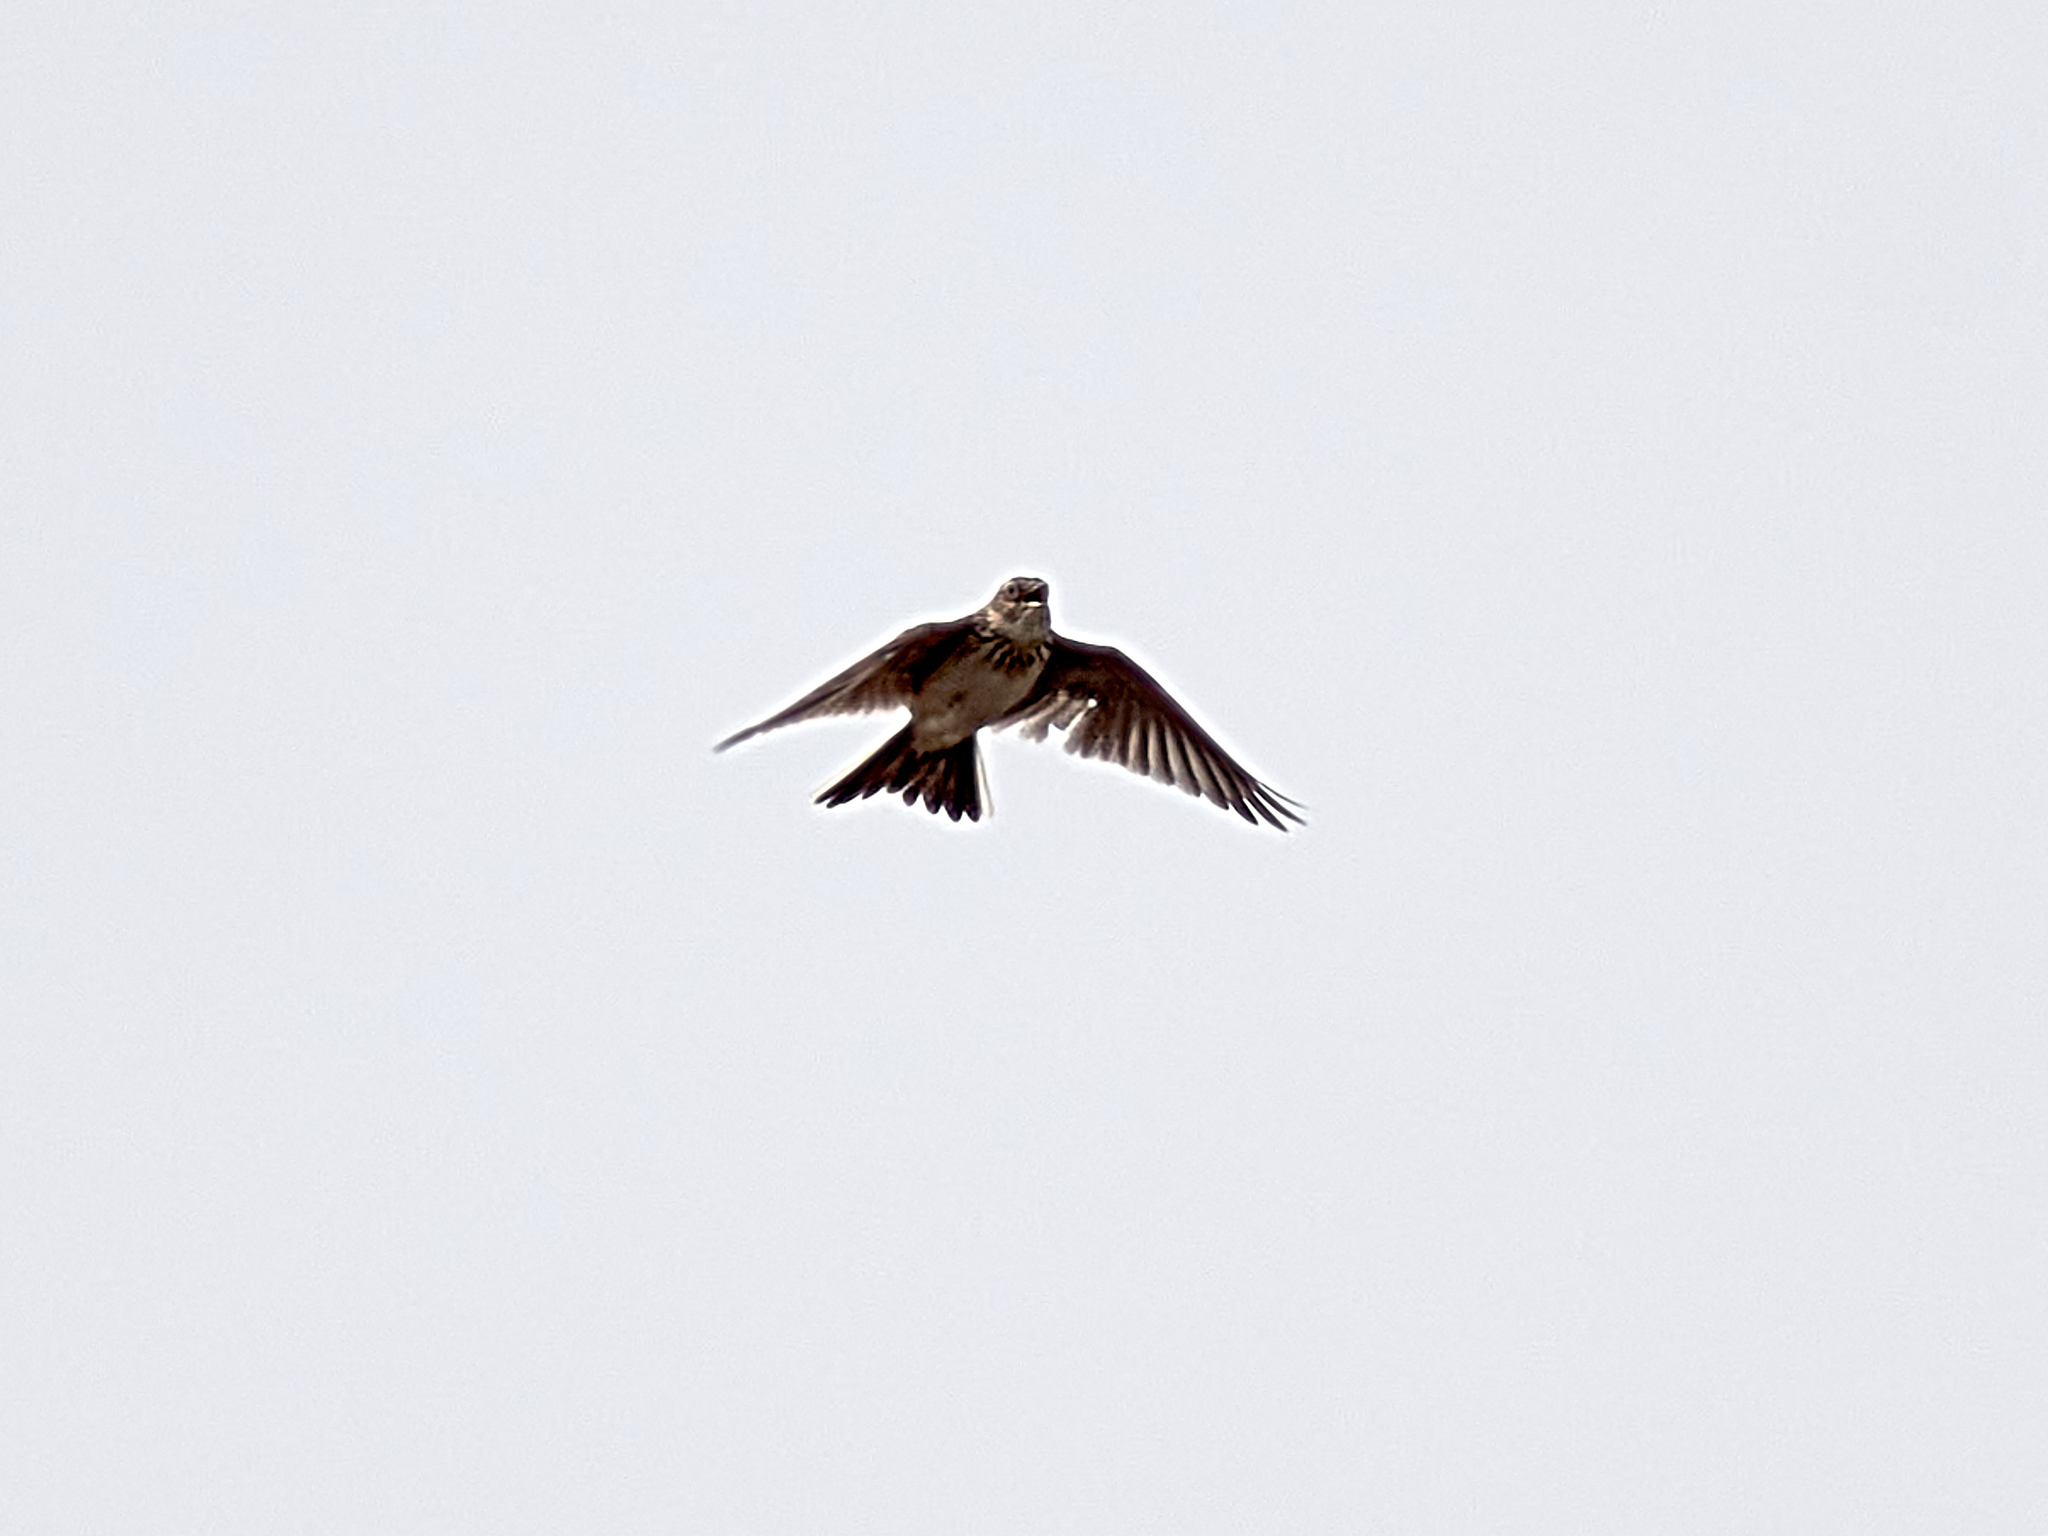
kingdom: Animalia
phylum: Chordata
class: Aves
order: Passeriformes
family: Alaudidae
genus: Alauda
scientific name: Alauda arvensis
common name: Eurasian skylark
